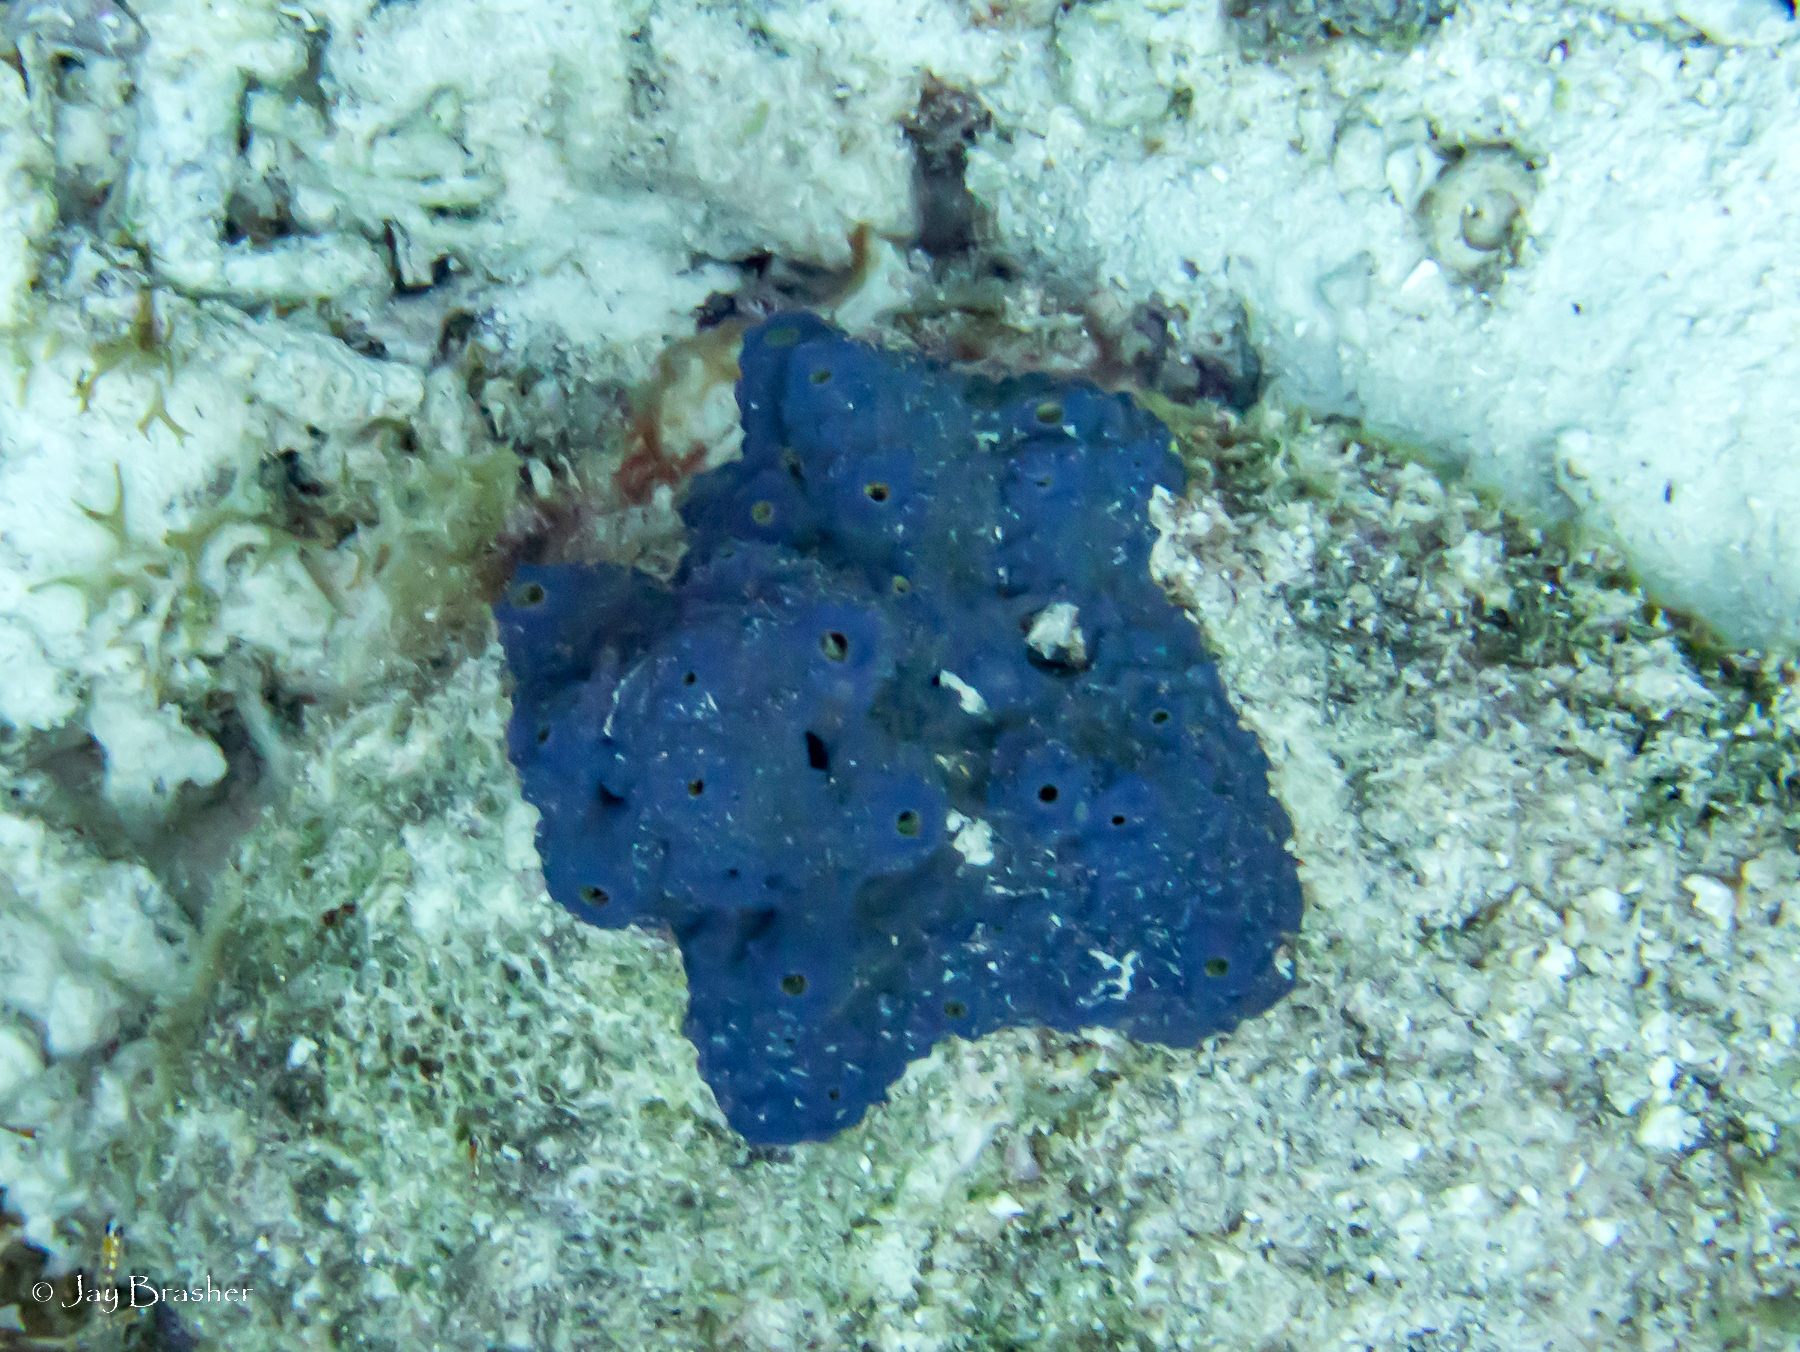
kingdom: Animalia
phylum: Porifera
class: Demospongiae
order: Verongiida
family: Aplysinidae
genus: Aiolochroia
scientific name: Aiolochroia crassa
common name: Branching tube sponge
